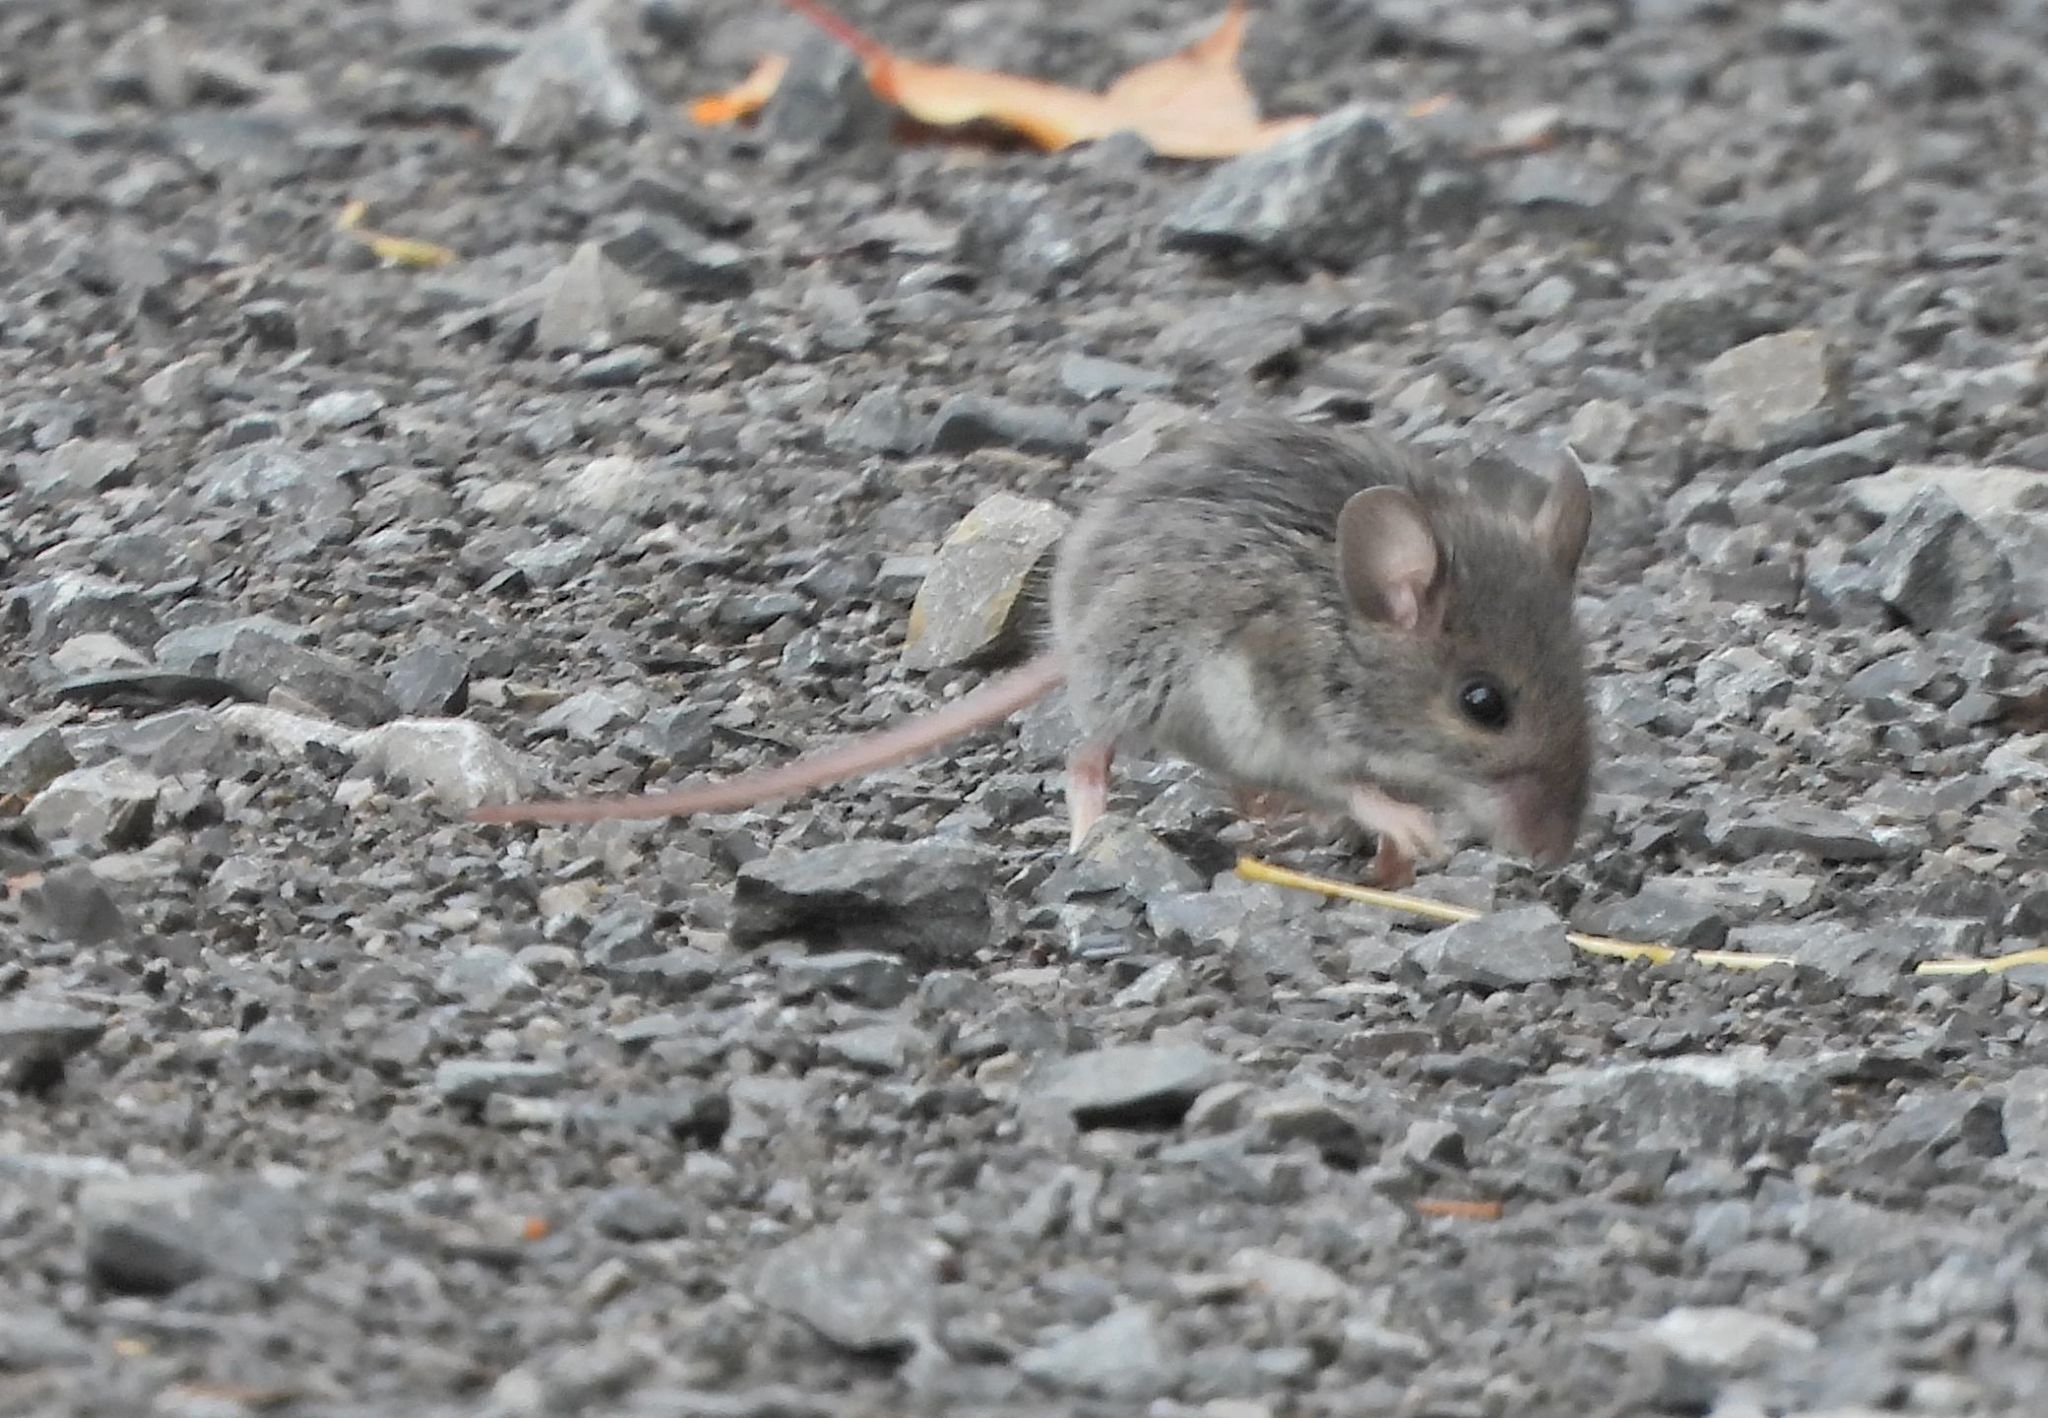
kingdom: Animalia
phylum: Chordata
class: Mammalia
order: Rodentia
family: Cricetidae
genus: Peromyscus
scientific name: Peromyscus
